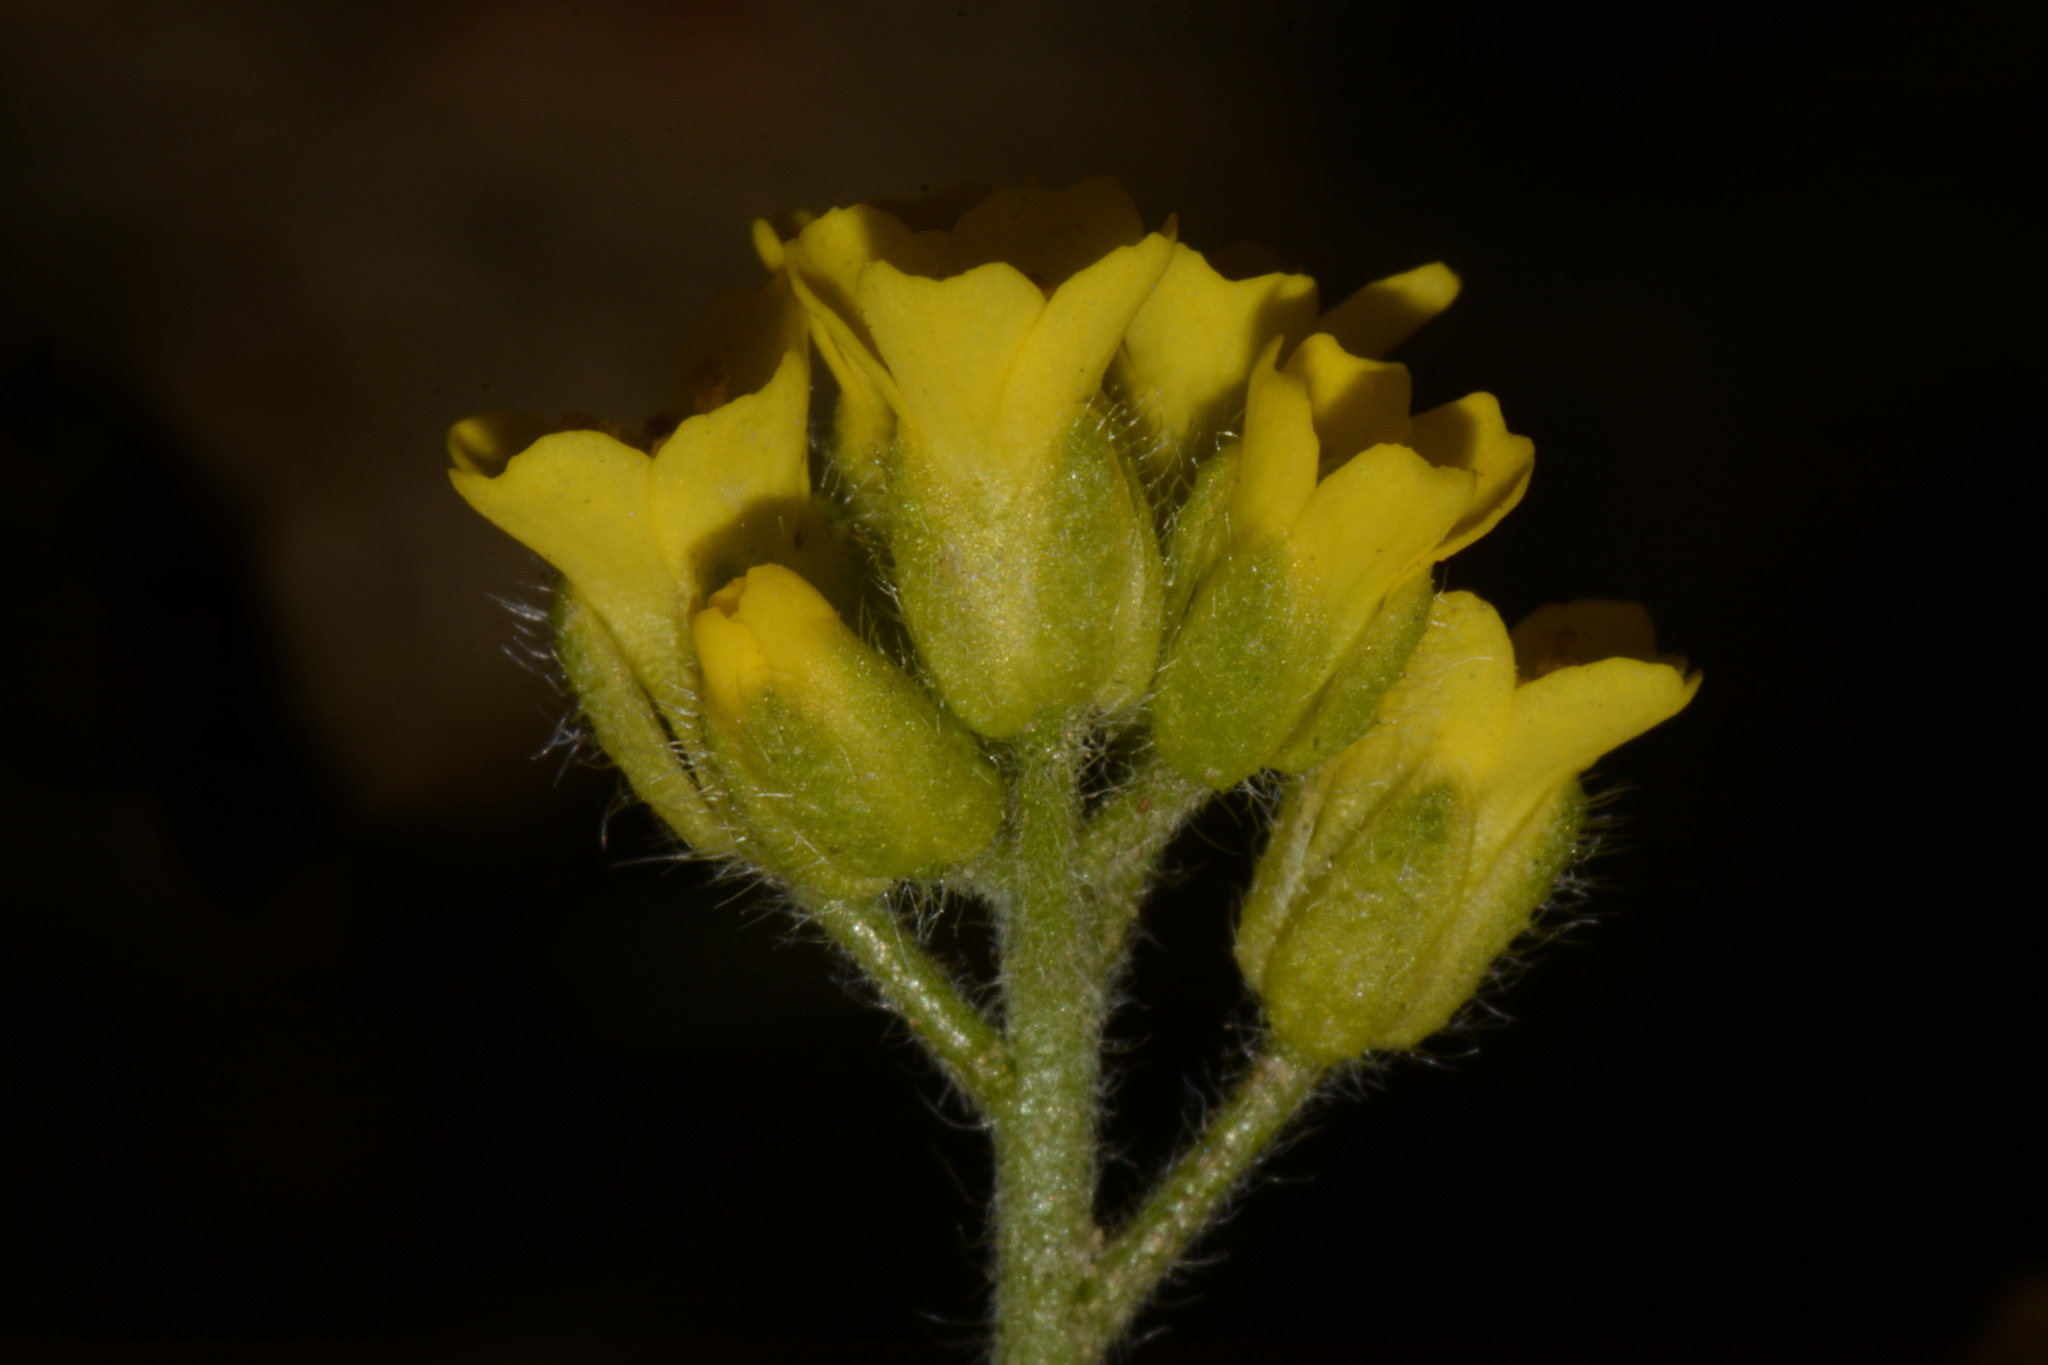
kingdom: Plantae
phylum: Tracheophyta
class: Magnoliopsida
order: Brassicales
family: Brassicaceae
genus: Draba
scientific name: Draba aurea
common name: Golden draba
